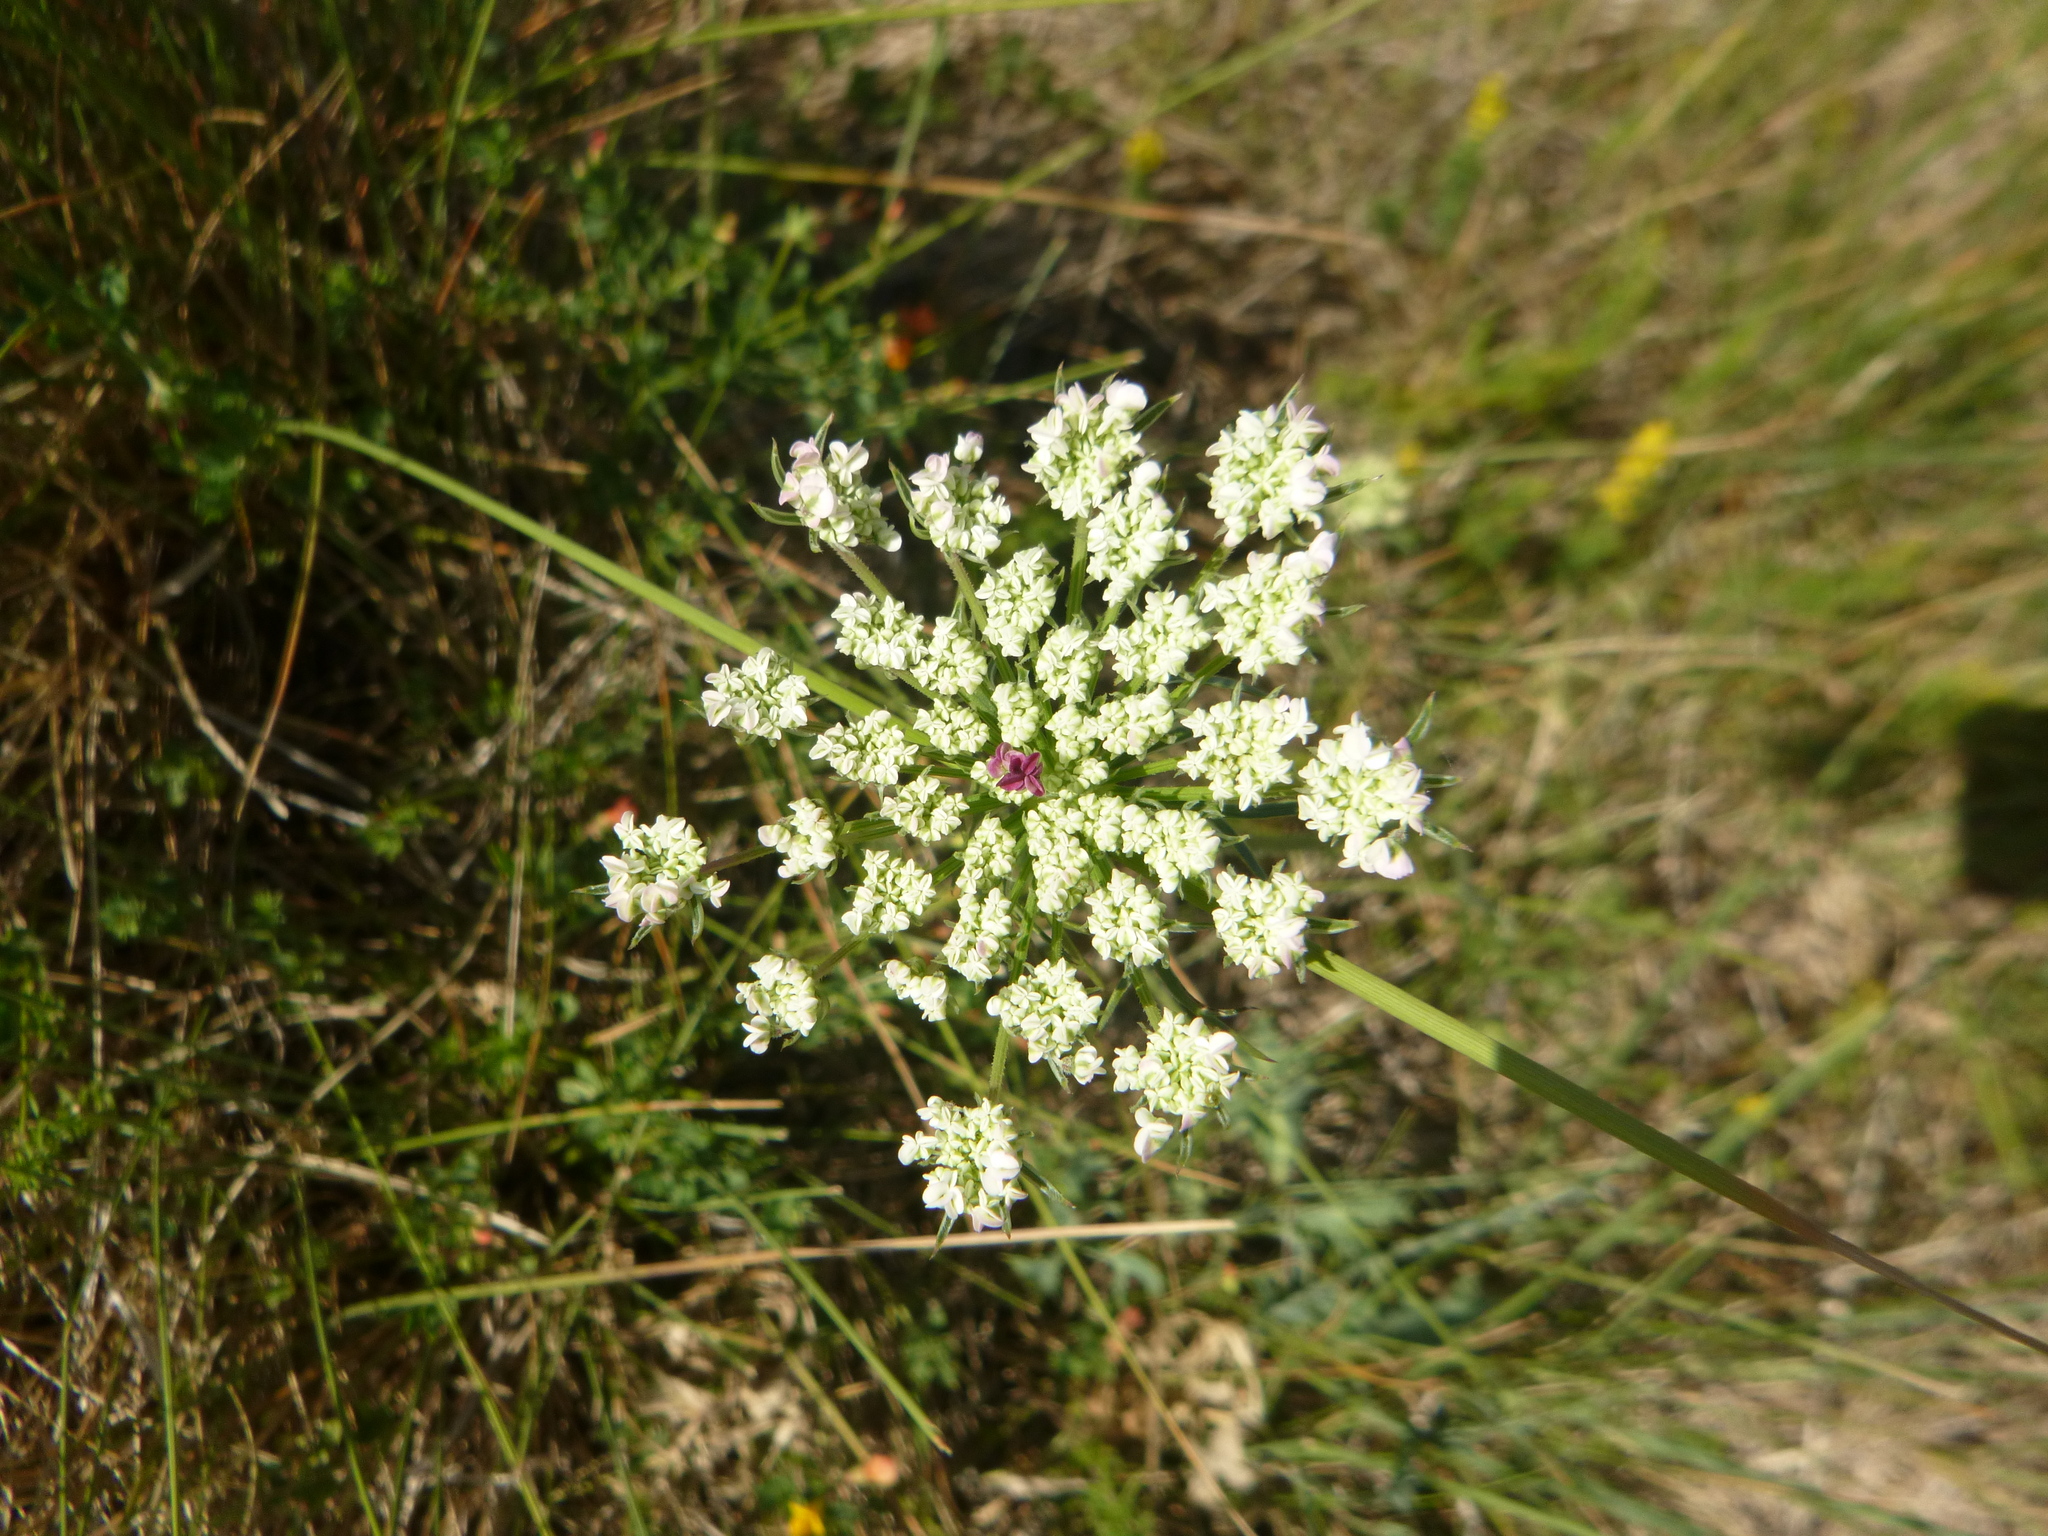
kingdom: Plantae
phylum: Tracheophyta
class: Magnoliopsida
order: Apiales
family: Apiaceae
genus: Daucus
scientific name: Daucus carota
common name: Wild carrot
